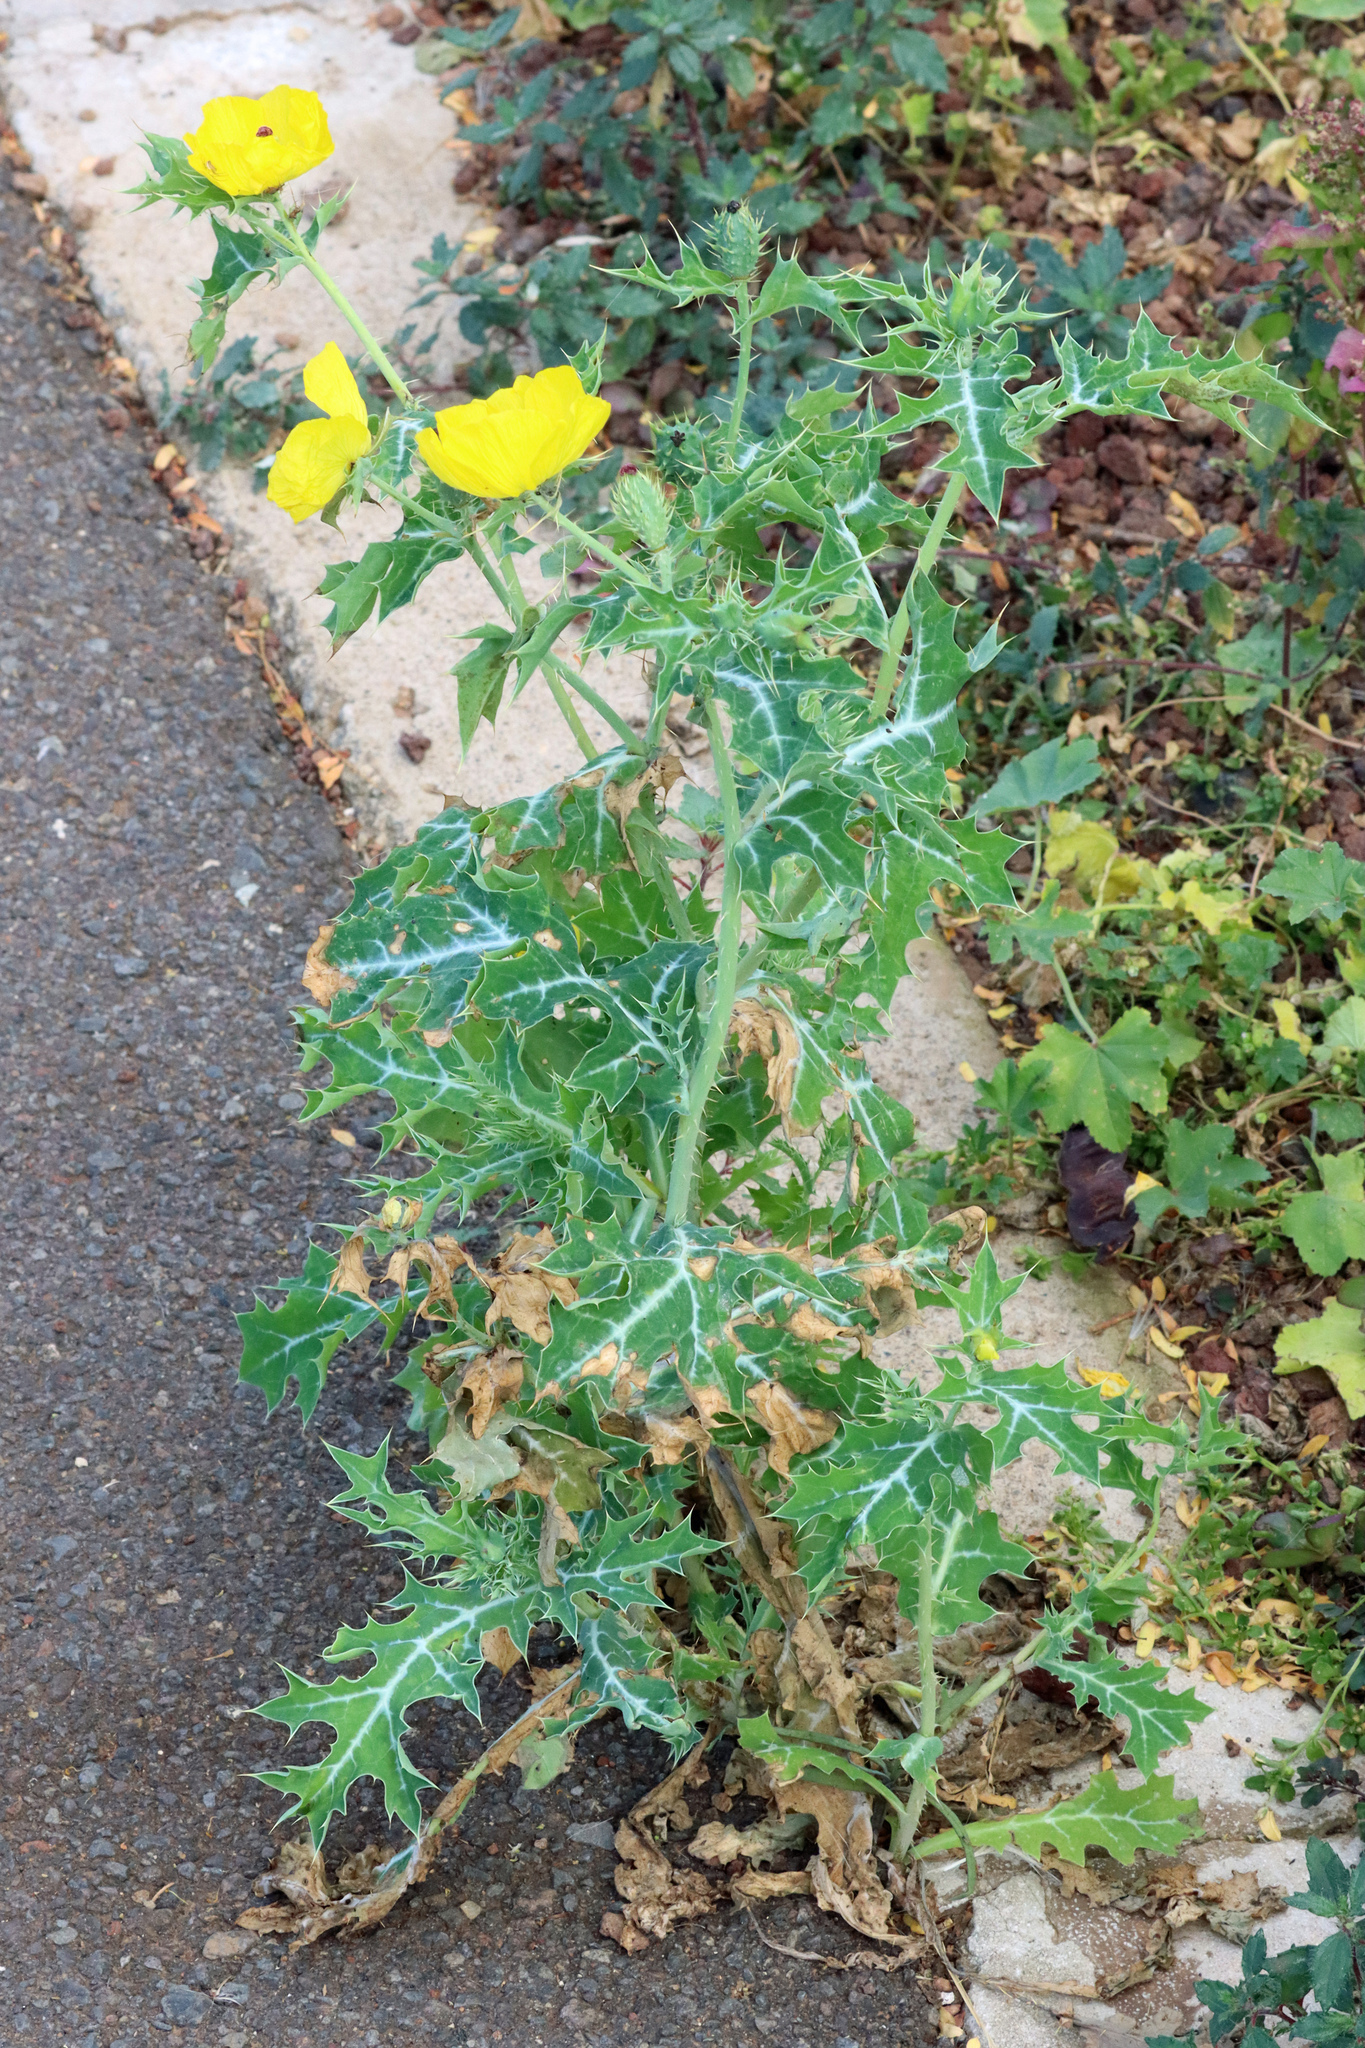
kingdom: Plantae
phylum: Tracheophyta
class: Magnoliopsida
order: Ranunculales
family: Papaveraceae
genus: Argemone
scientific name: Argemone mexicana
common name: Mexican poppy
